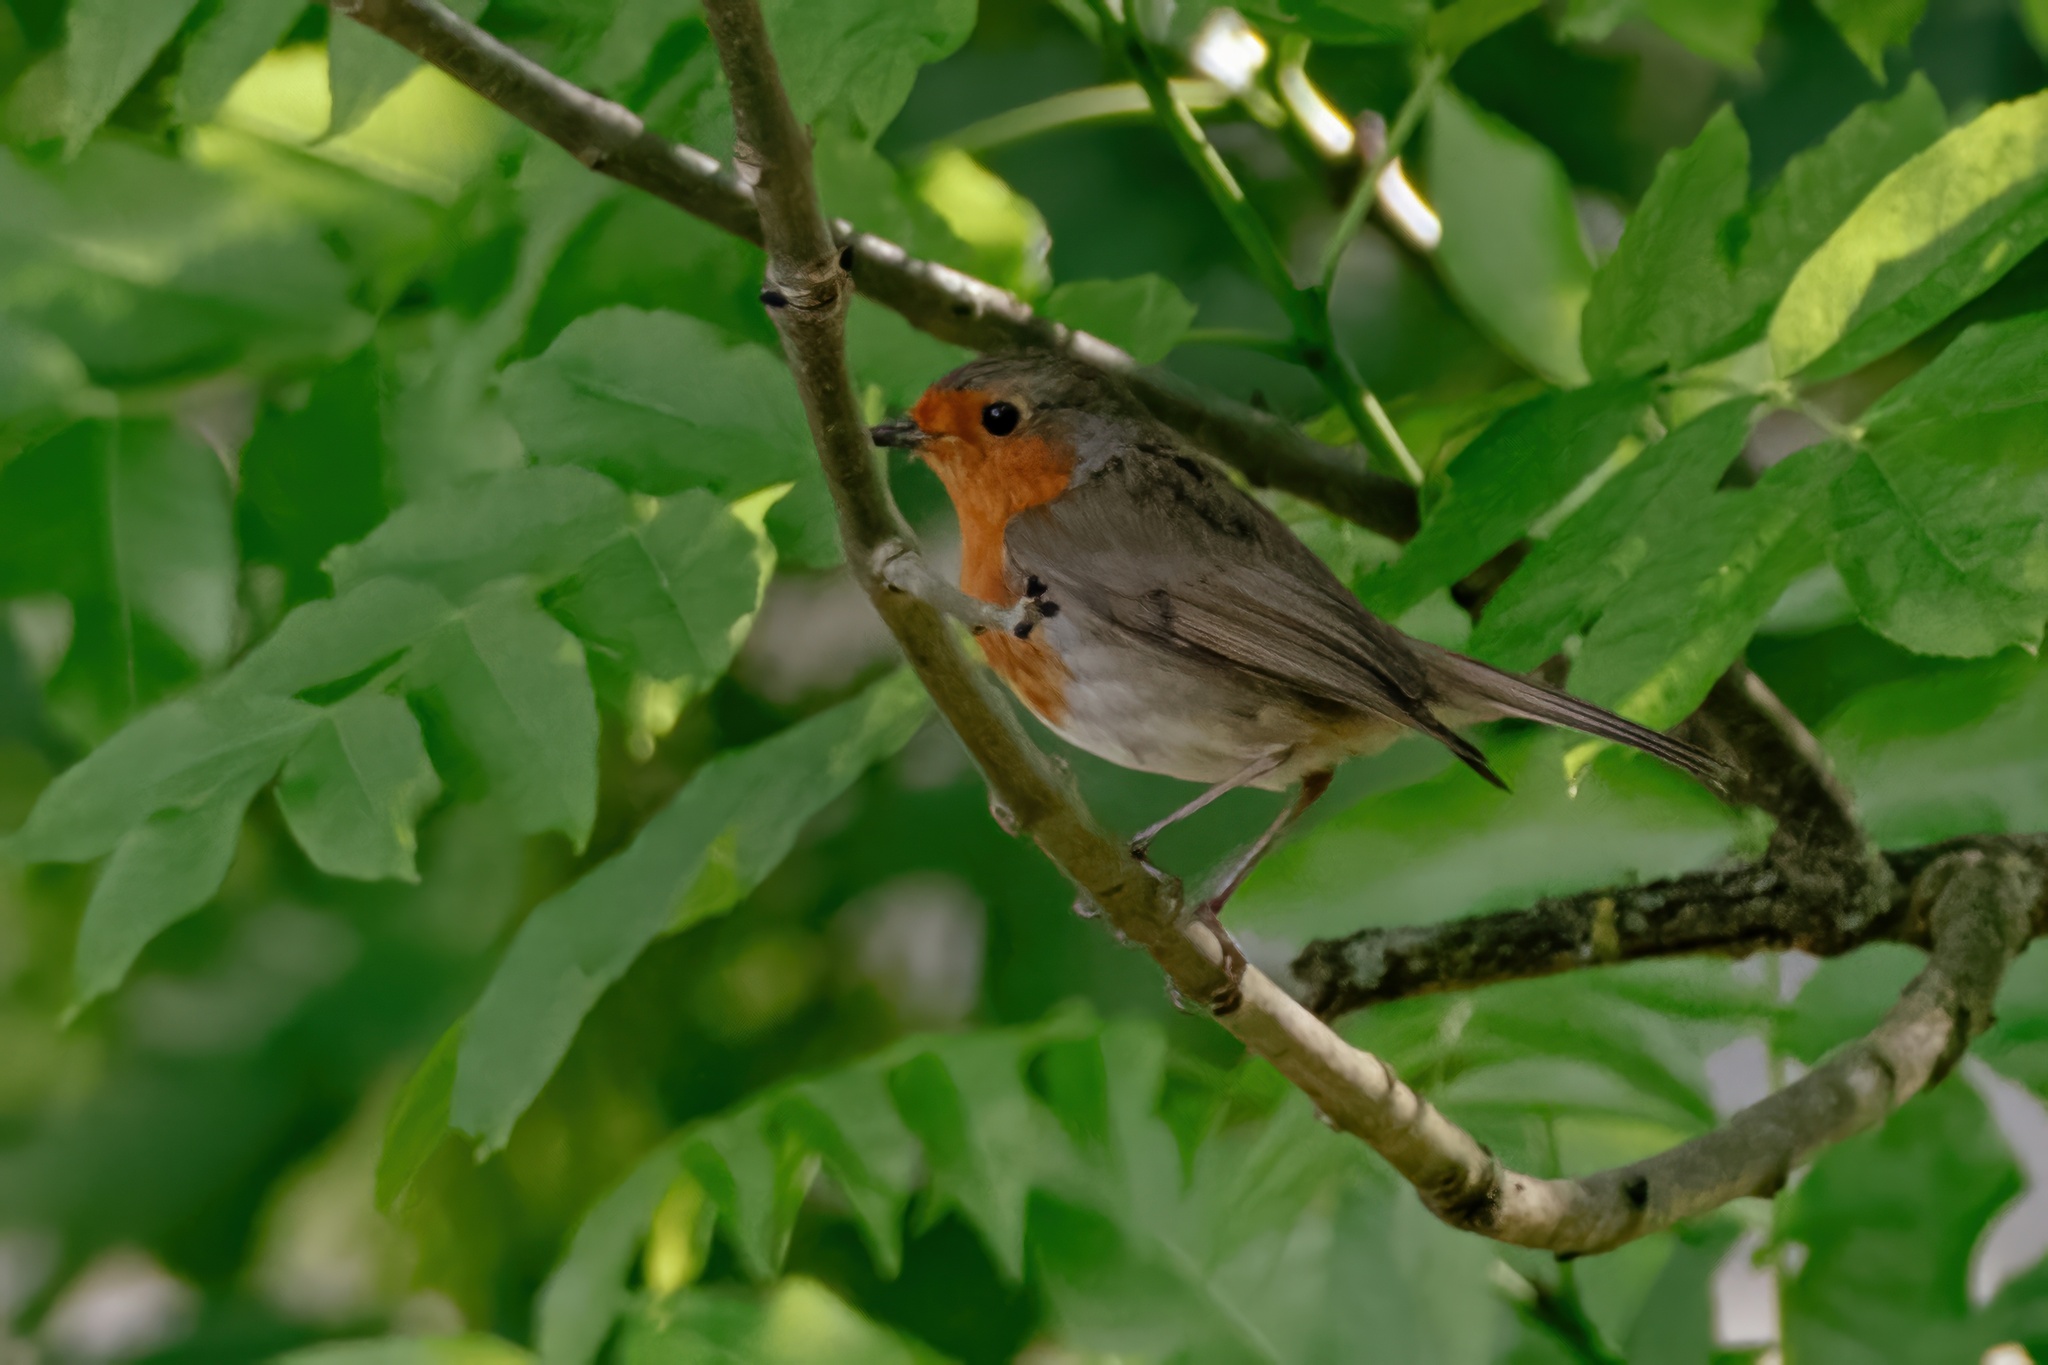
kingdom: Animalia
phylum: Chordata
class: Aves
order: Passeriformes
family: Muscicapidae
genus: Erithacus
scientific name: Erithacus rubecula
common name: European robin
